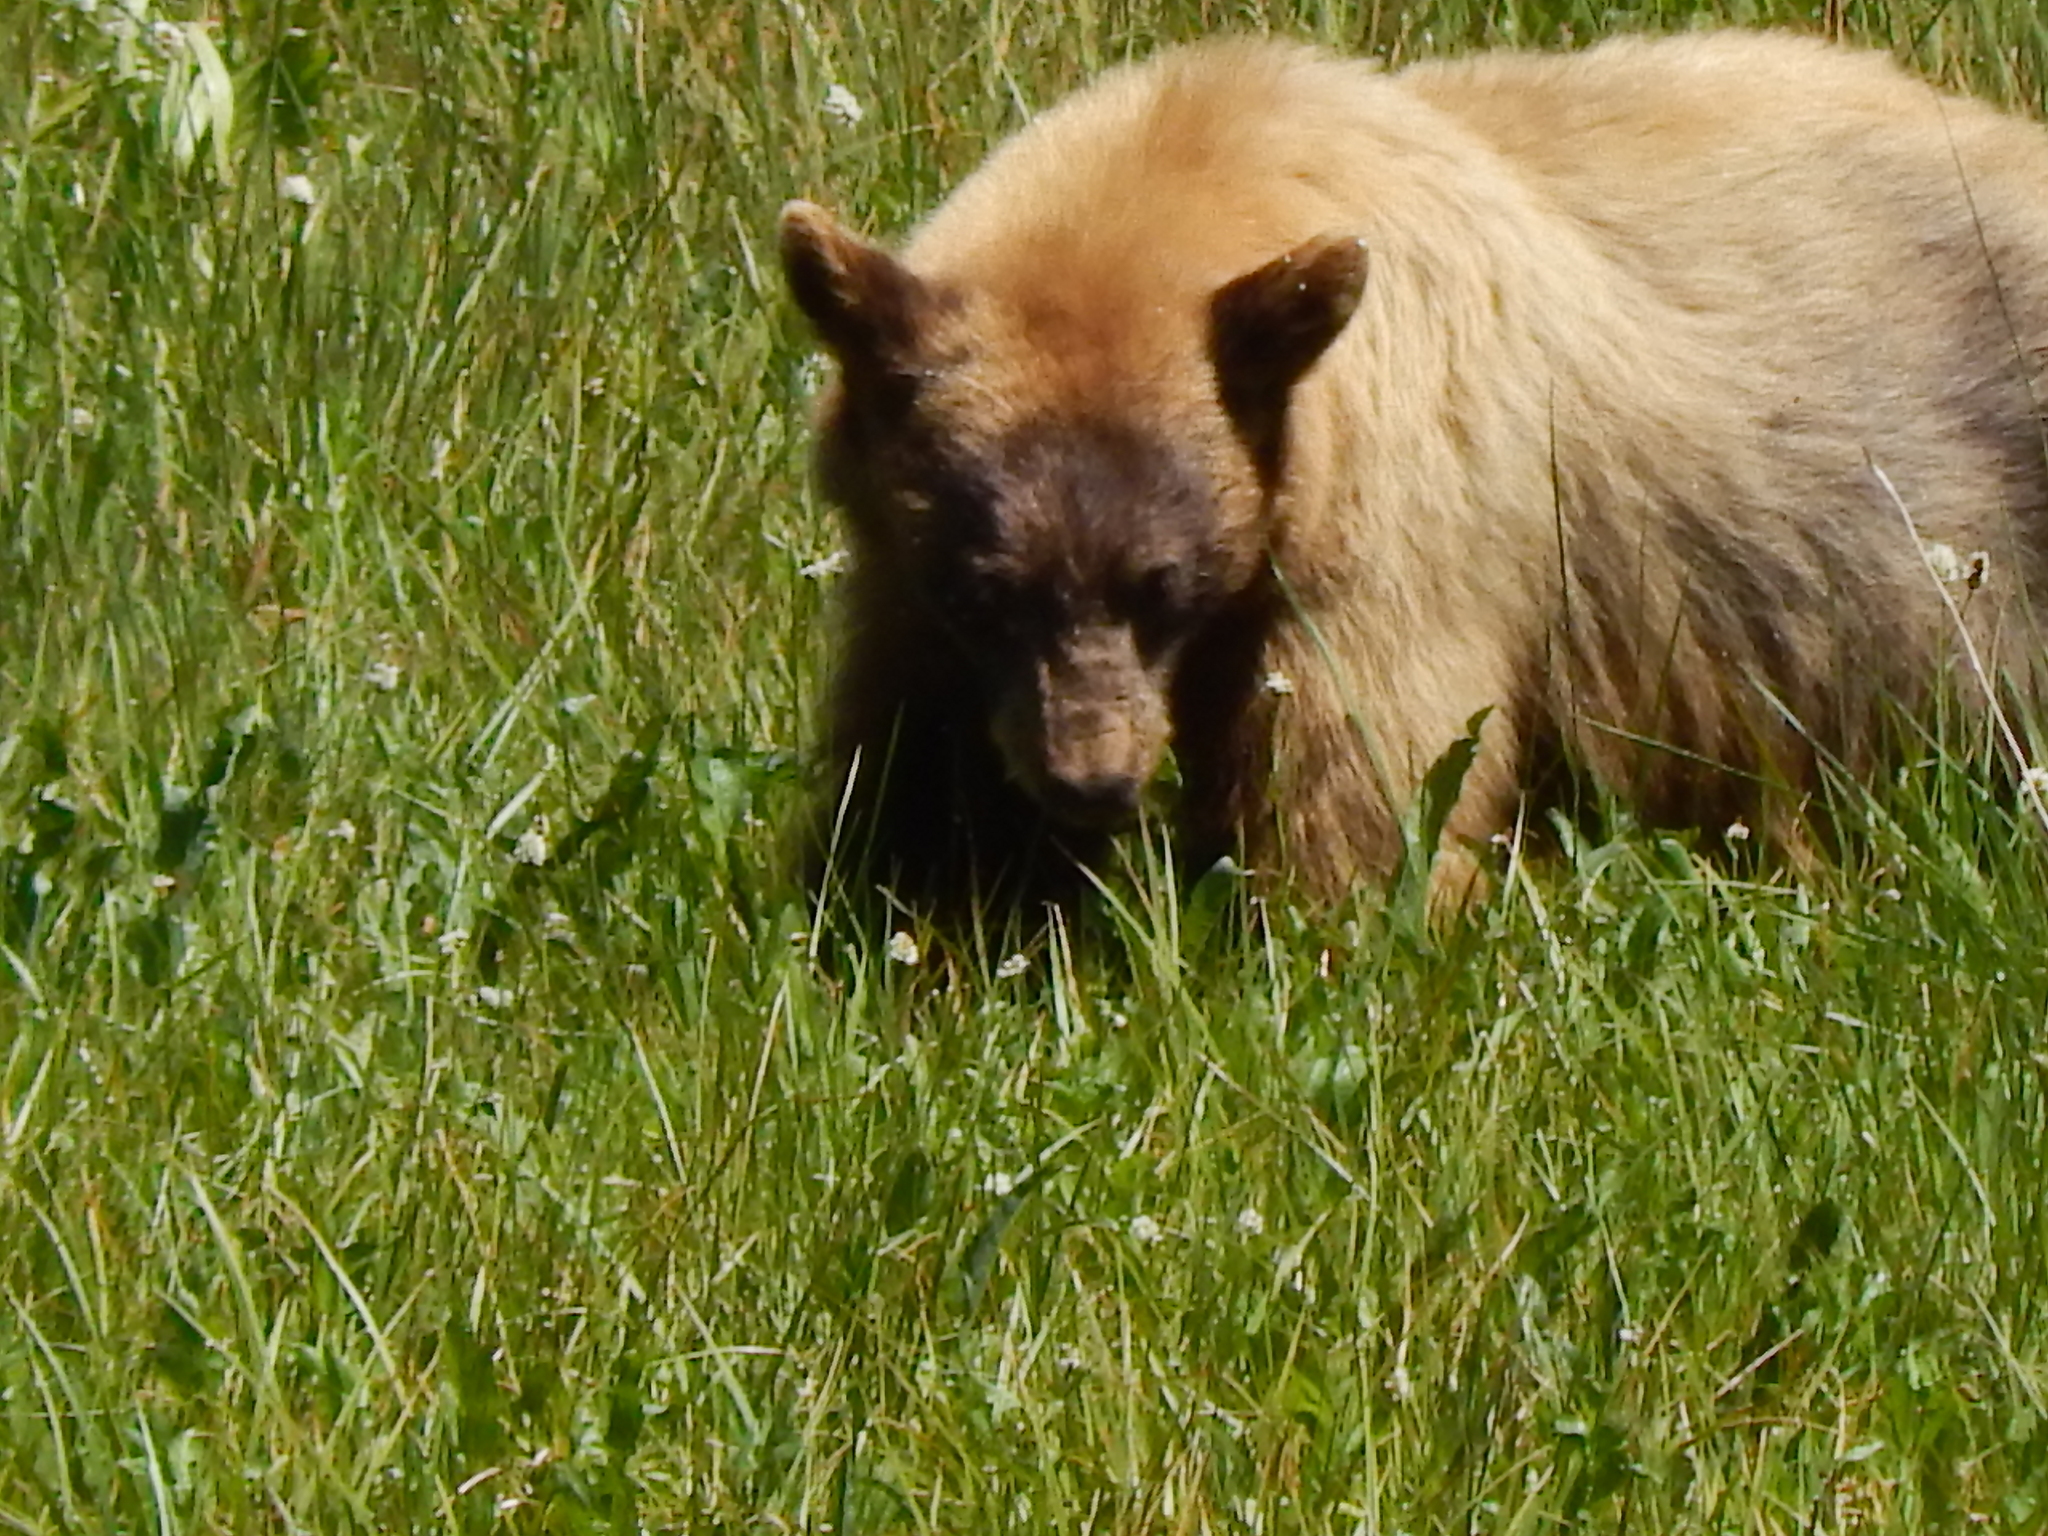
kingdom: Animalia
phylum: Chordata
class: Mammalia
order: Carnivora
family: Ursidae
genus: Ursus
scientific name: Ursus americanus
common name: American black bear
